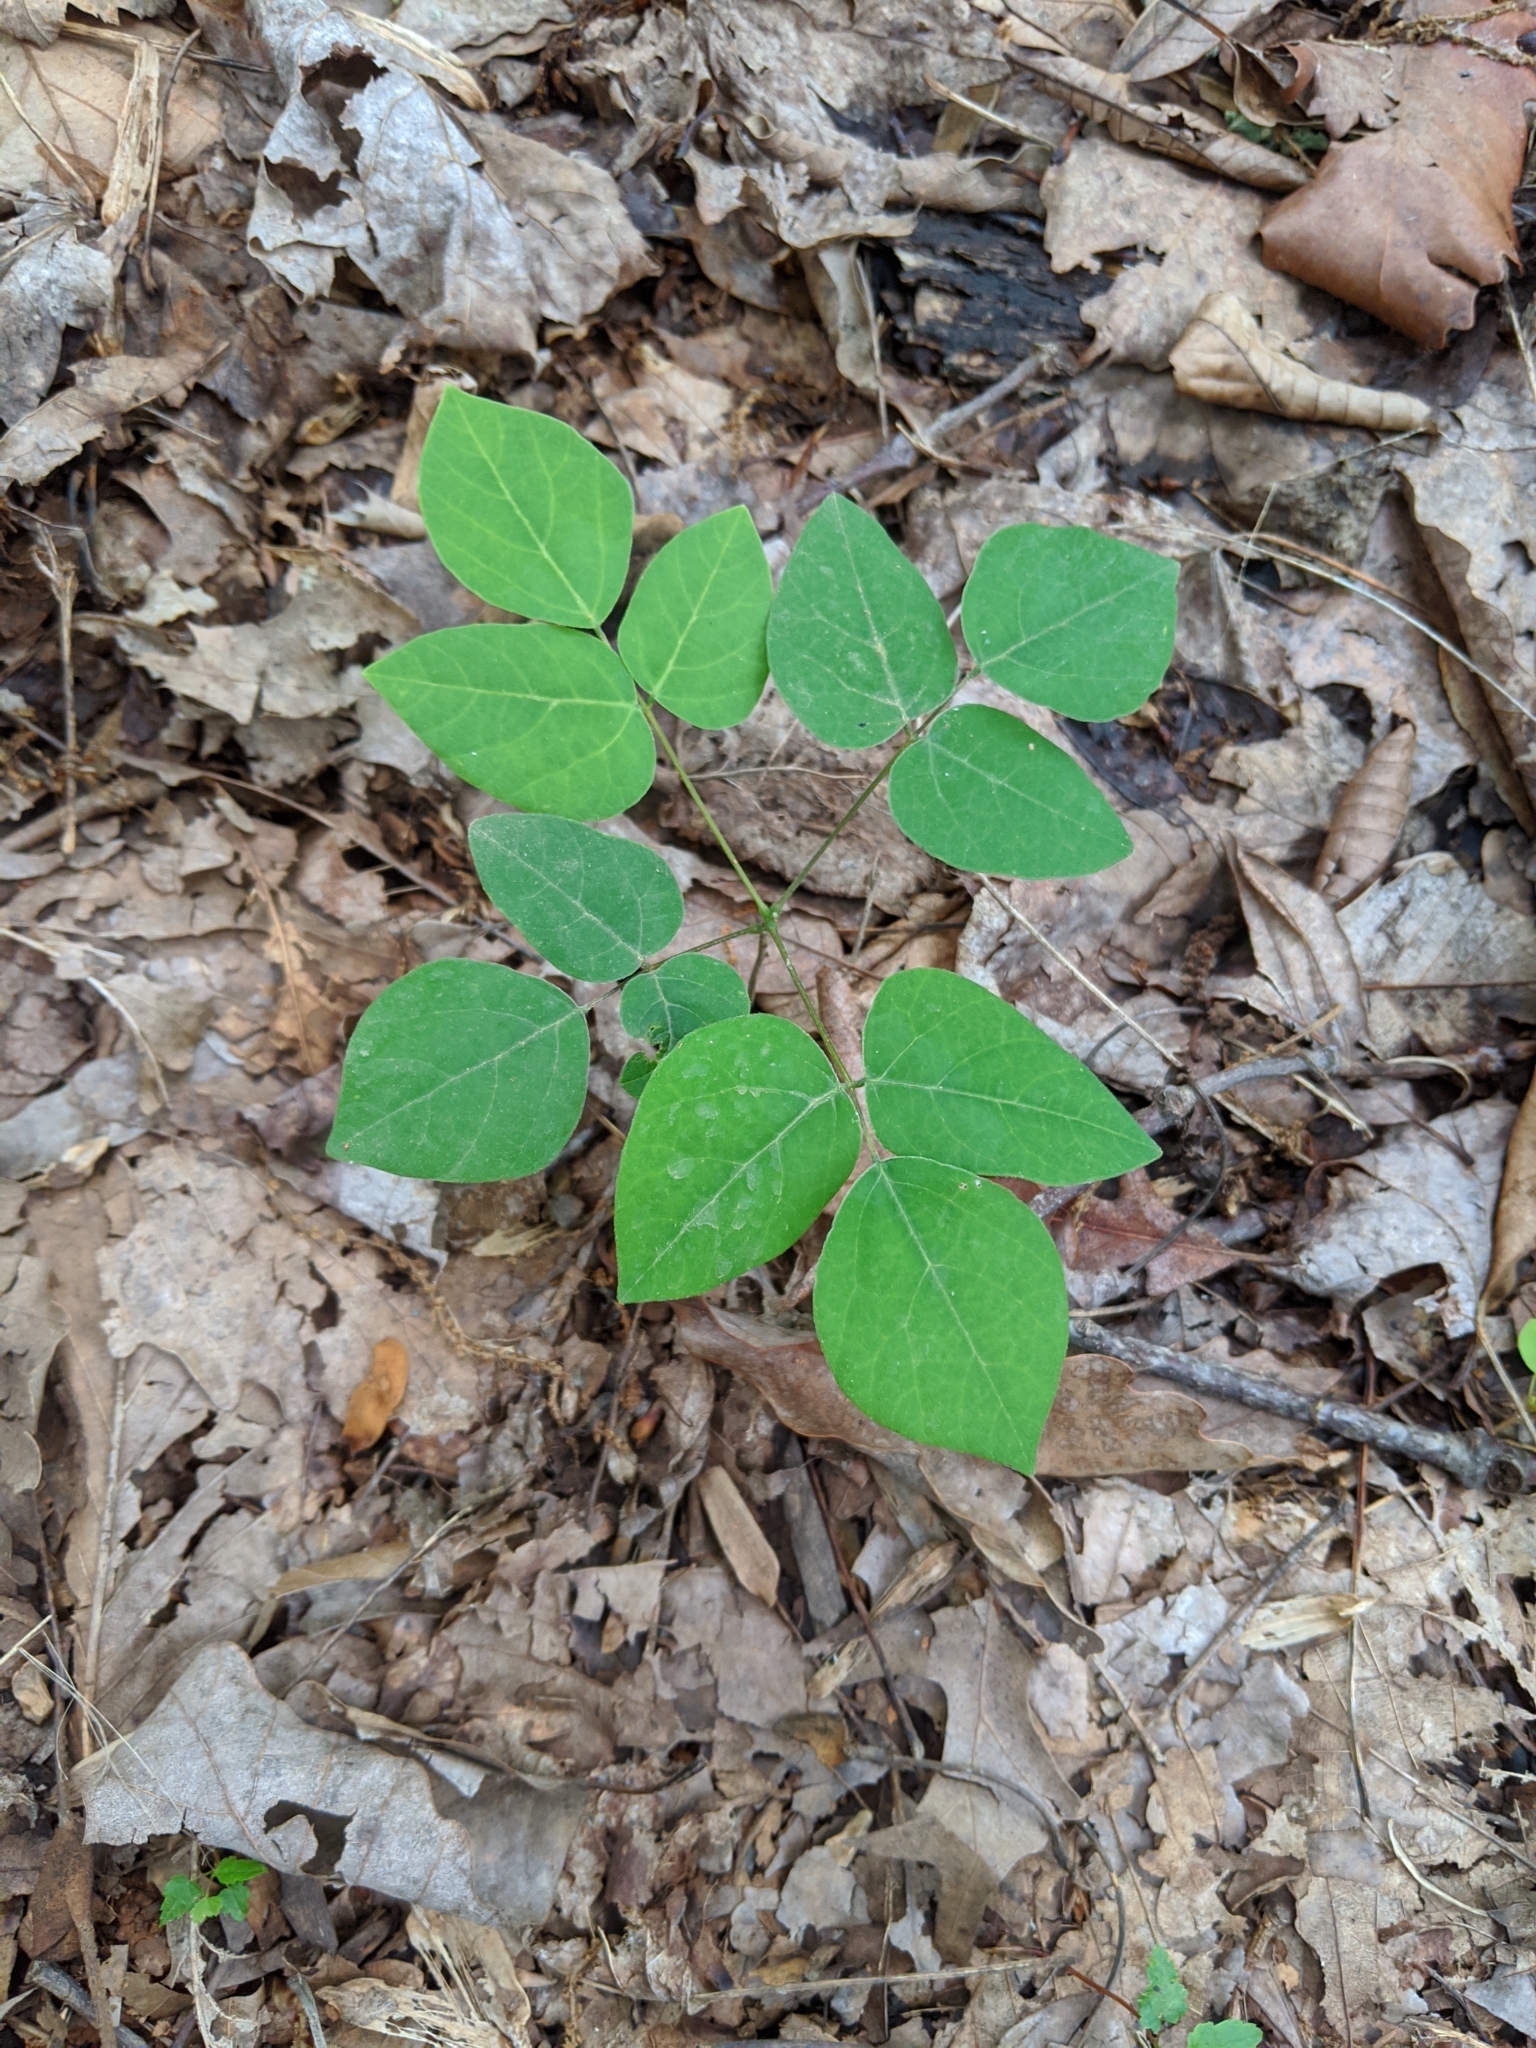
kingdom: Plantae
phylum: Tracheophyta
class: Magnoliopsida
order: Fabales
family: Fabaceae
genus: Hylodesmum
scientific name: Hylodesmum nudiflorum
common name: Bare-stemmed tick-trefoil
